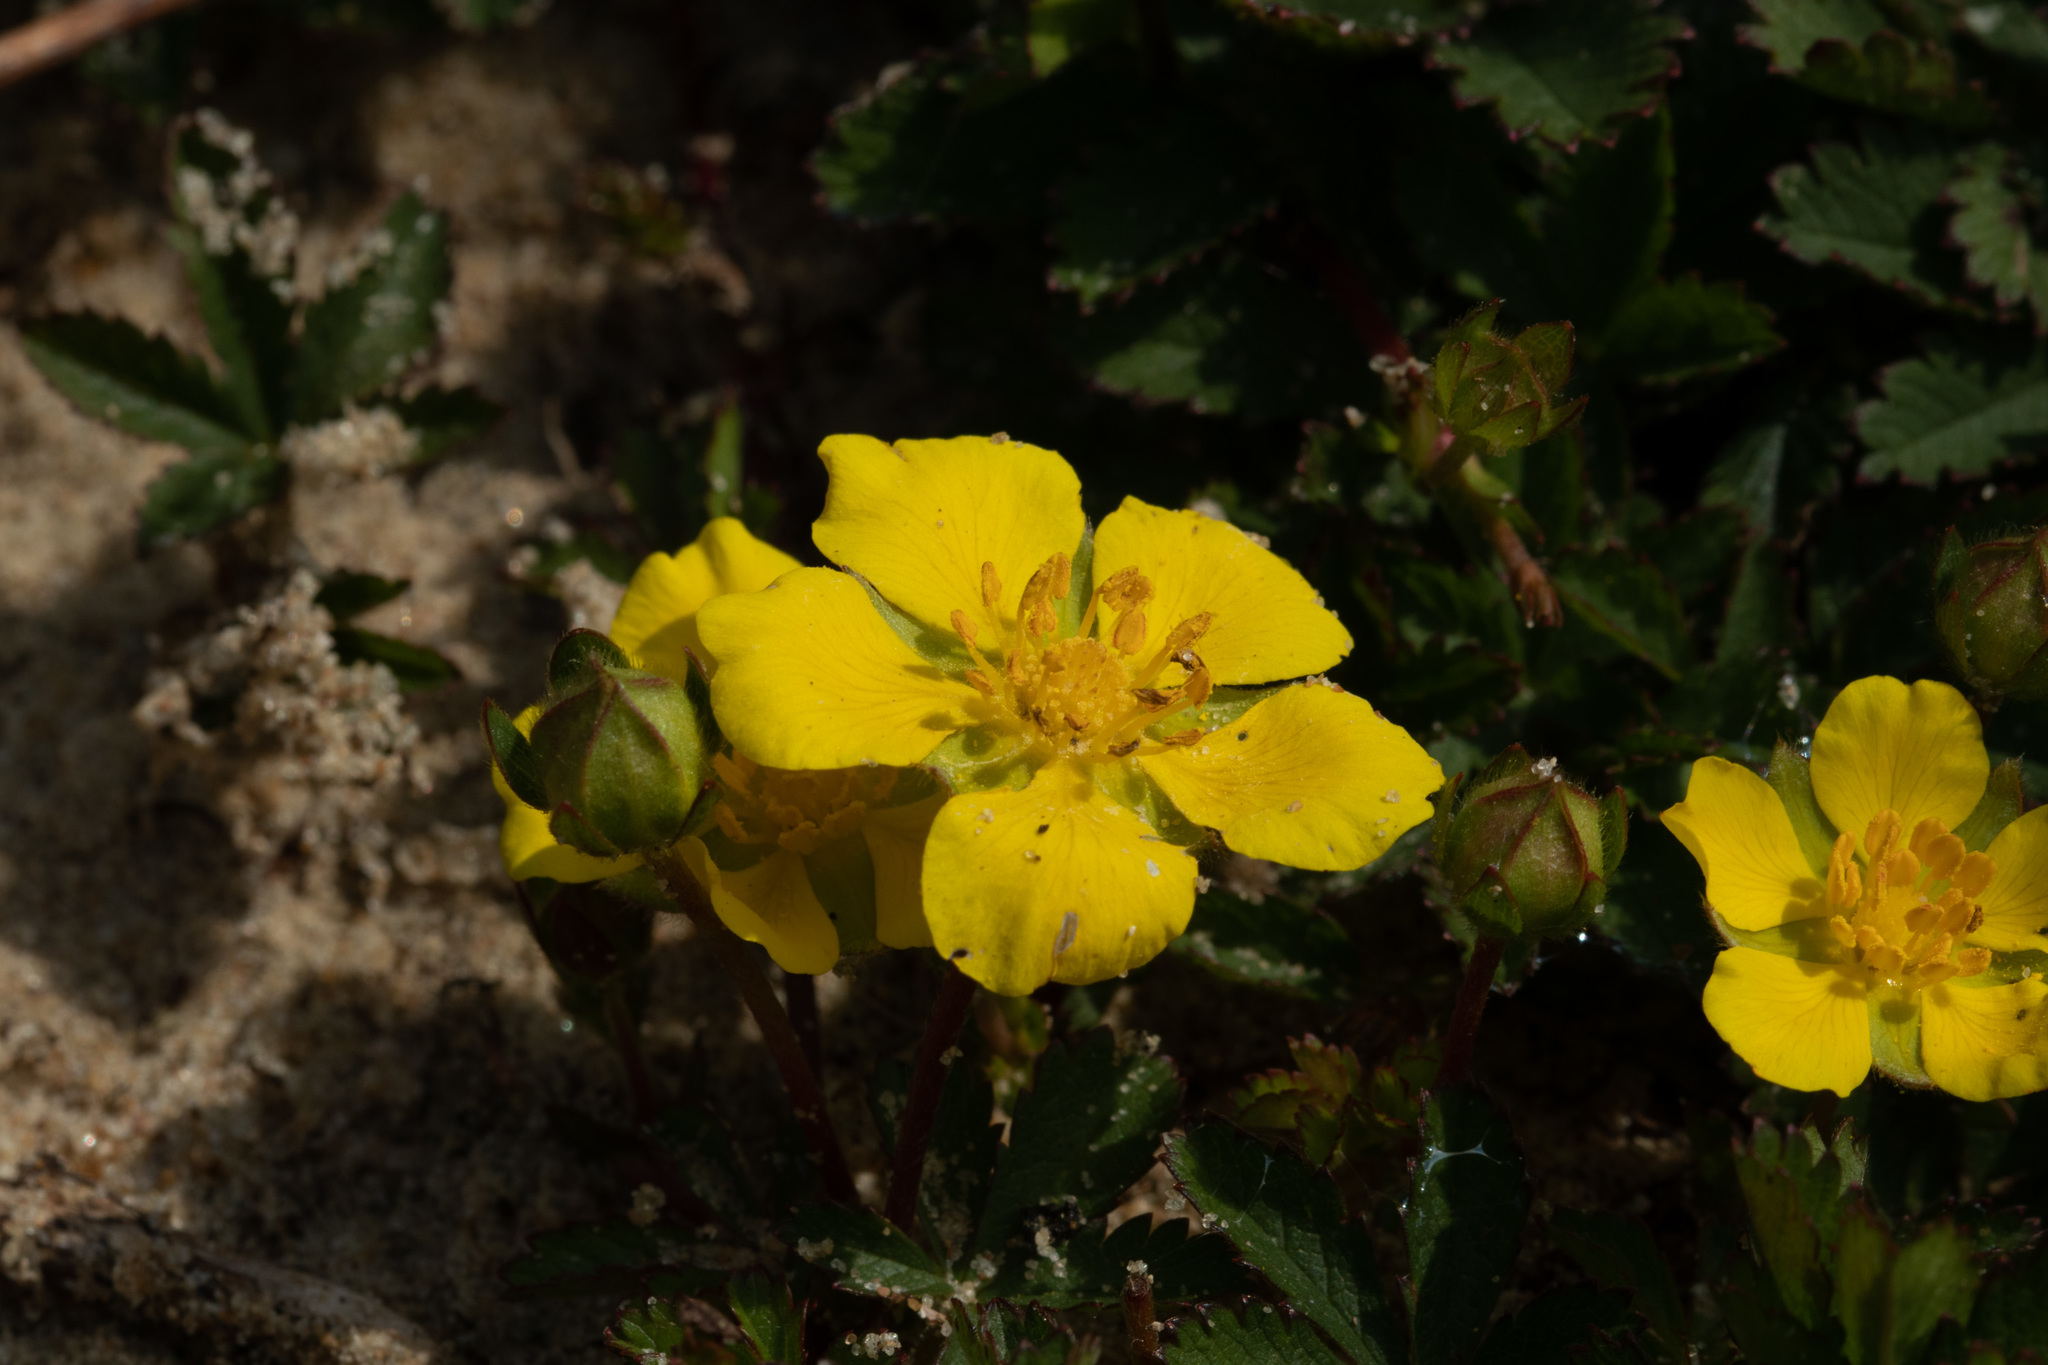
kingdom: Plantae
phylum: Tracheophyta
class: Magnoliopsida
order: Rosales
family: Rosaceae
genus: Potentilla
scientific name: Potentilla reptans
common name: Creeping cinquefoil
